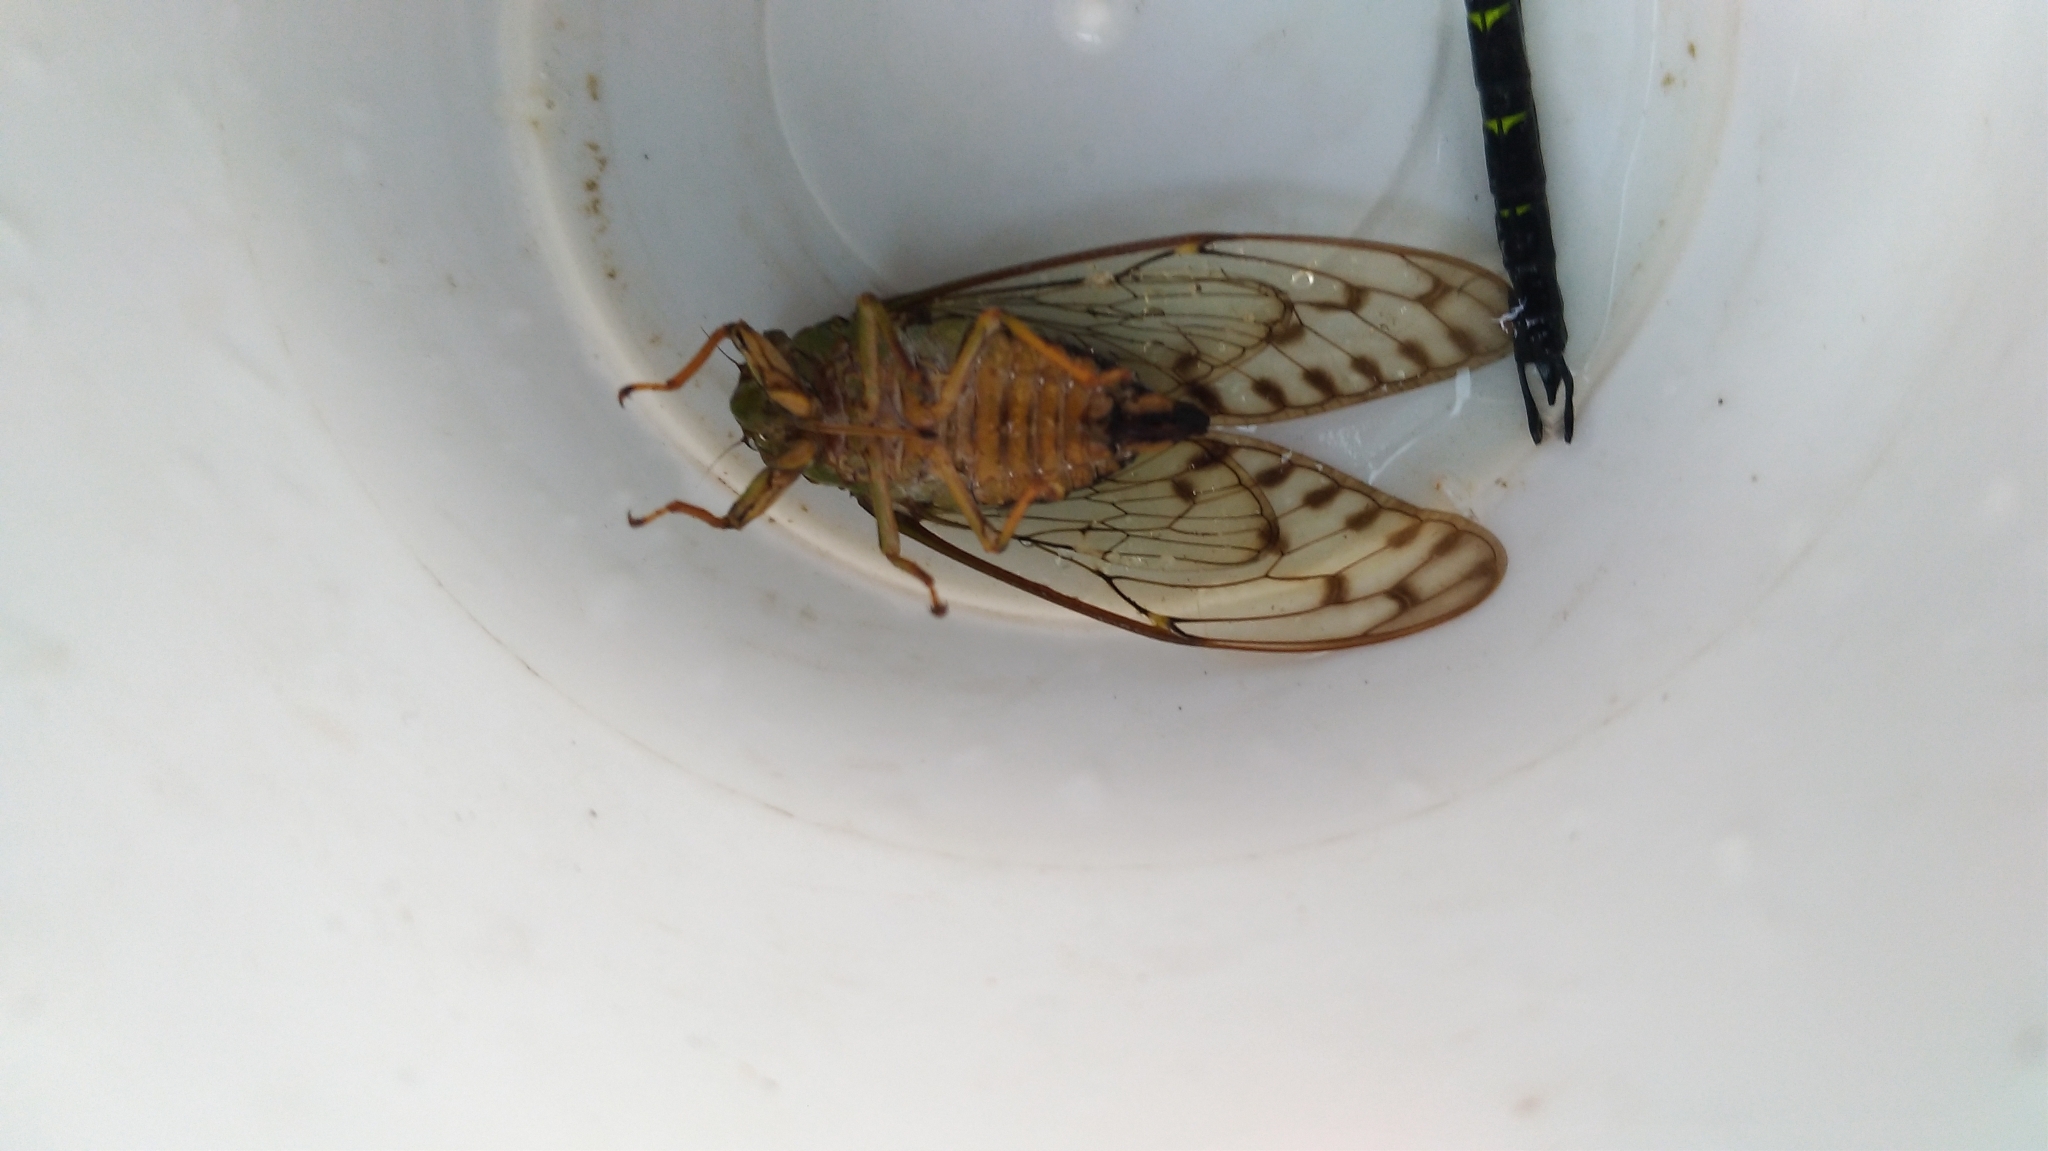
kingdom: Animalia
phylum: Arthropoda
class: Insecta
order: Hemiptera
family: Cicadidae
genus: Tanna
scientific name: Tanna sozanensis
